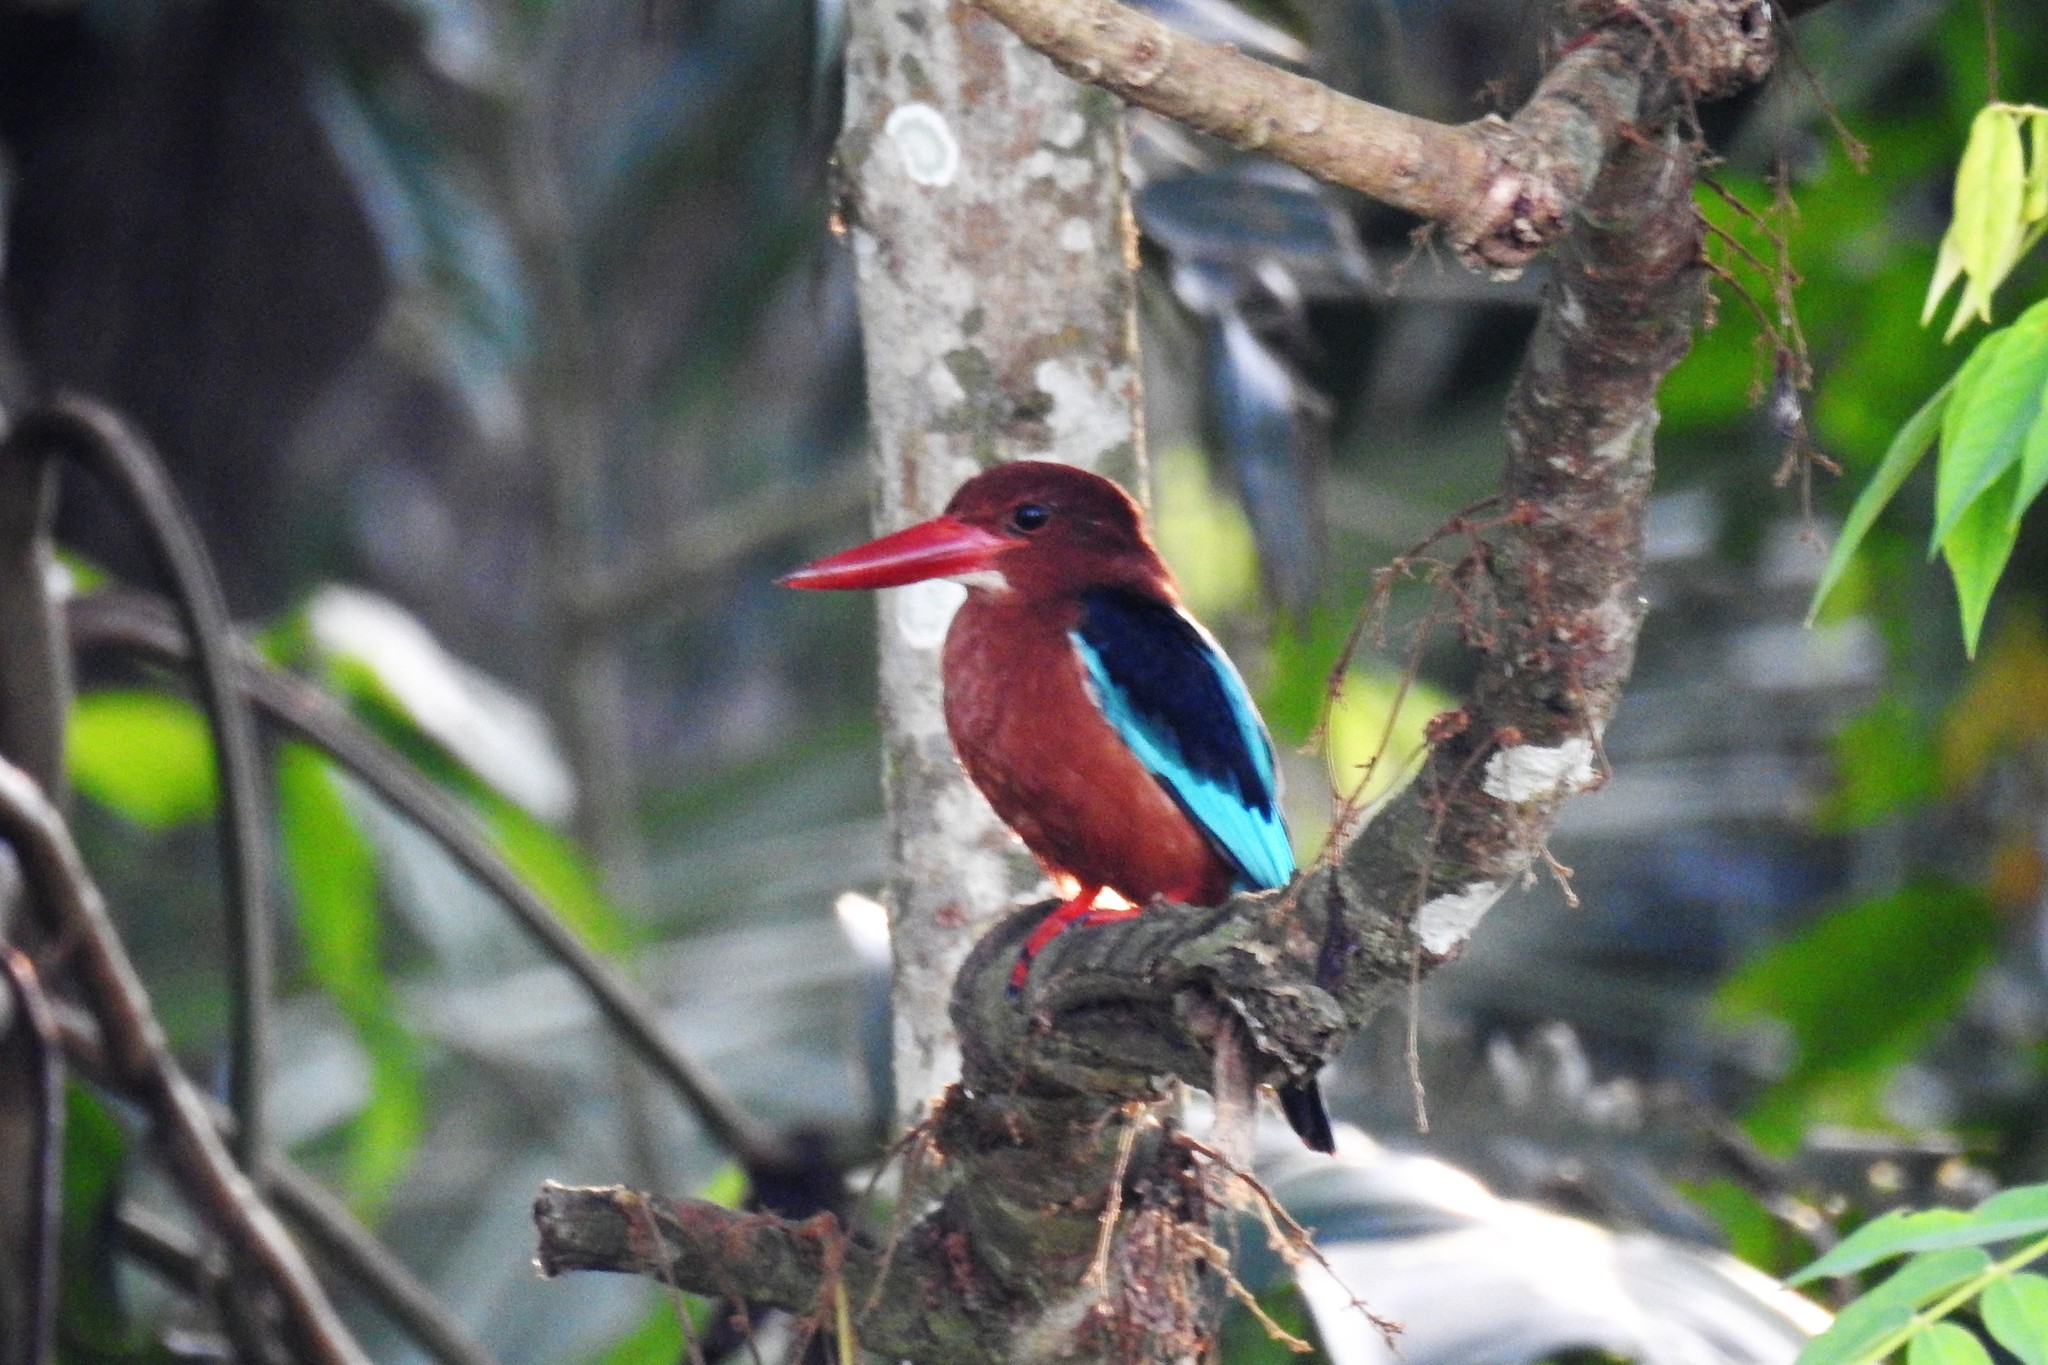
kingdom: Animalia
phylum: Chordata
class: Aves
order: Coraciiformes
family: Alcedinidae
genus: Halcyon
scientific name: Halcyon gularis
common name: Brown-breasted kingfisher
